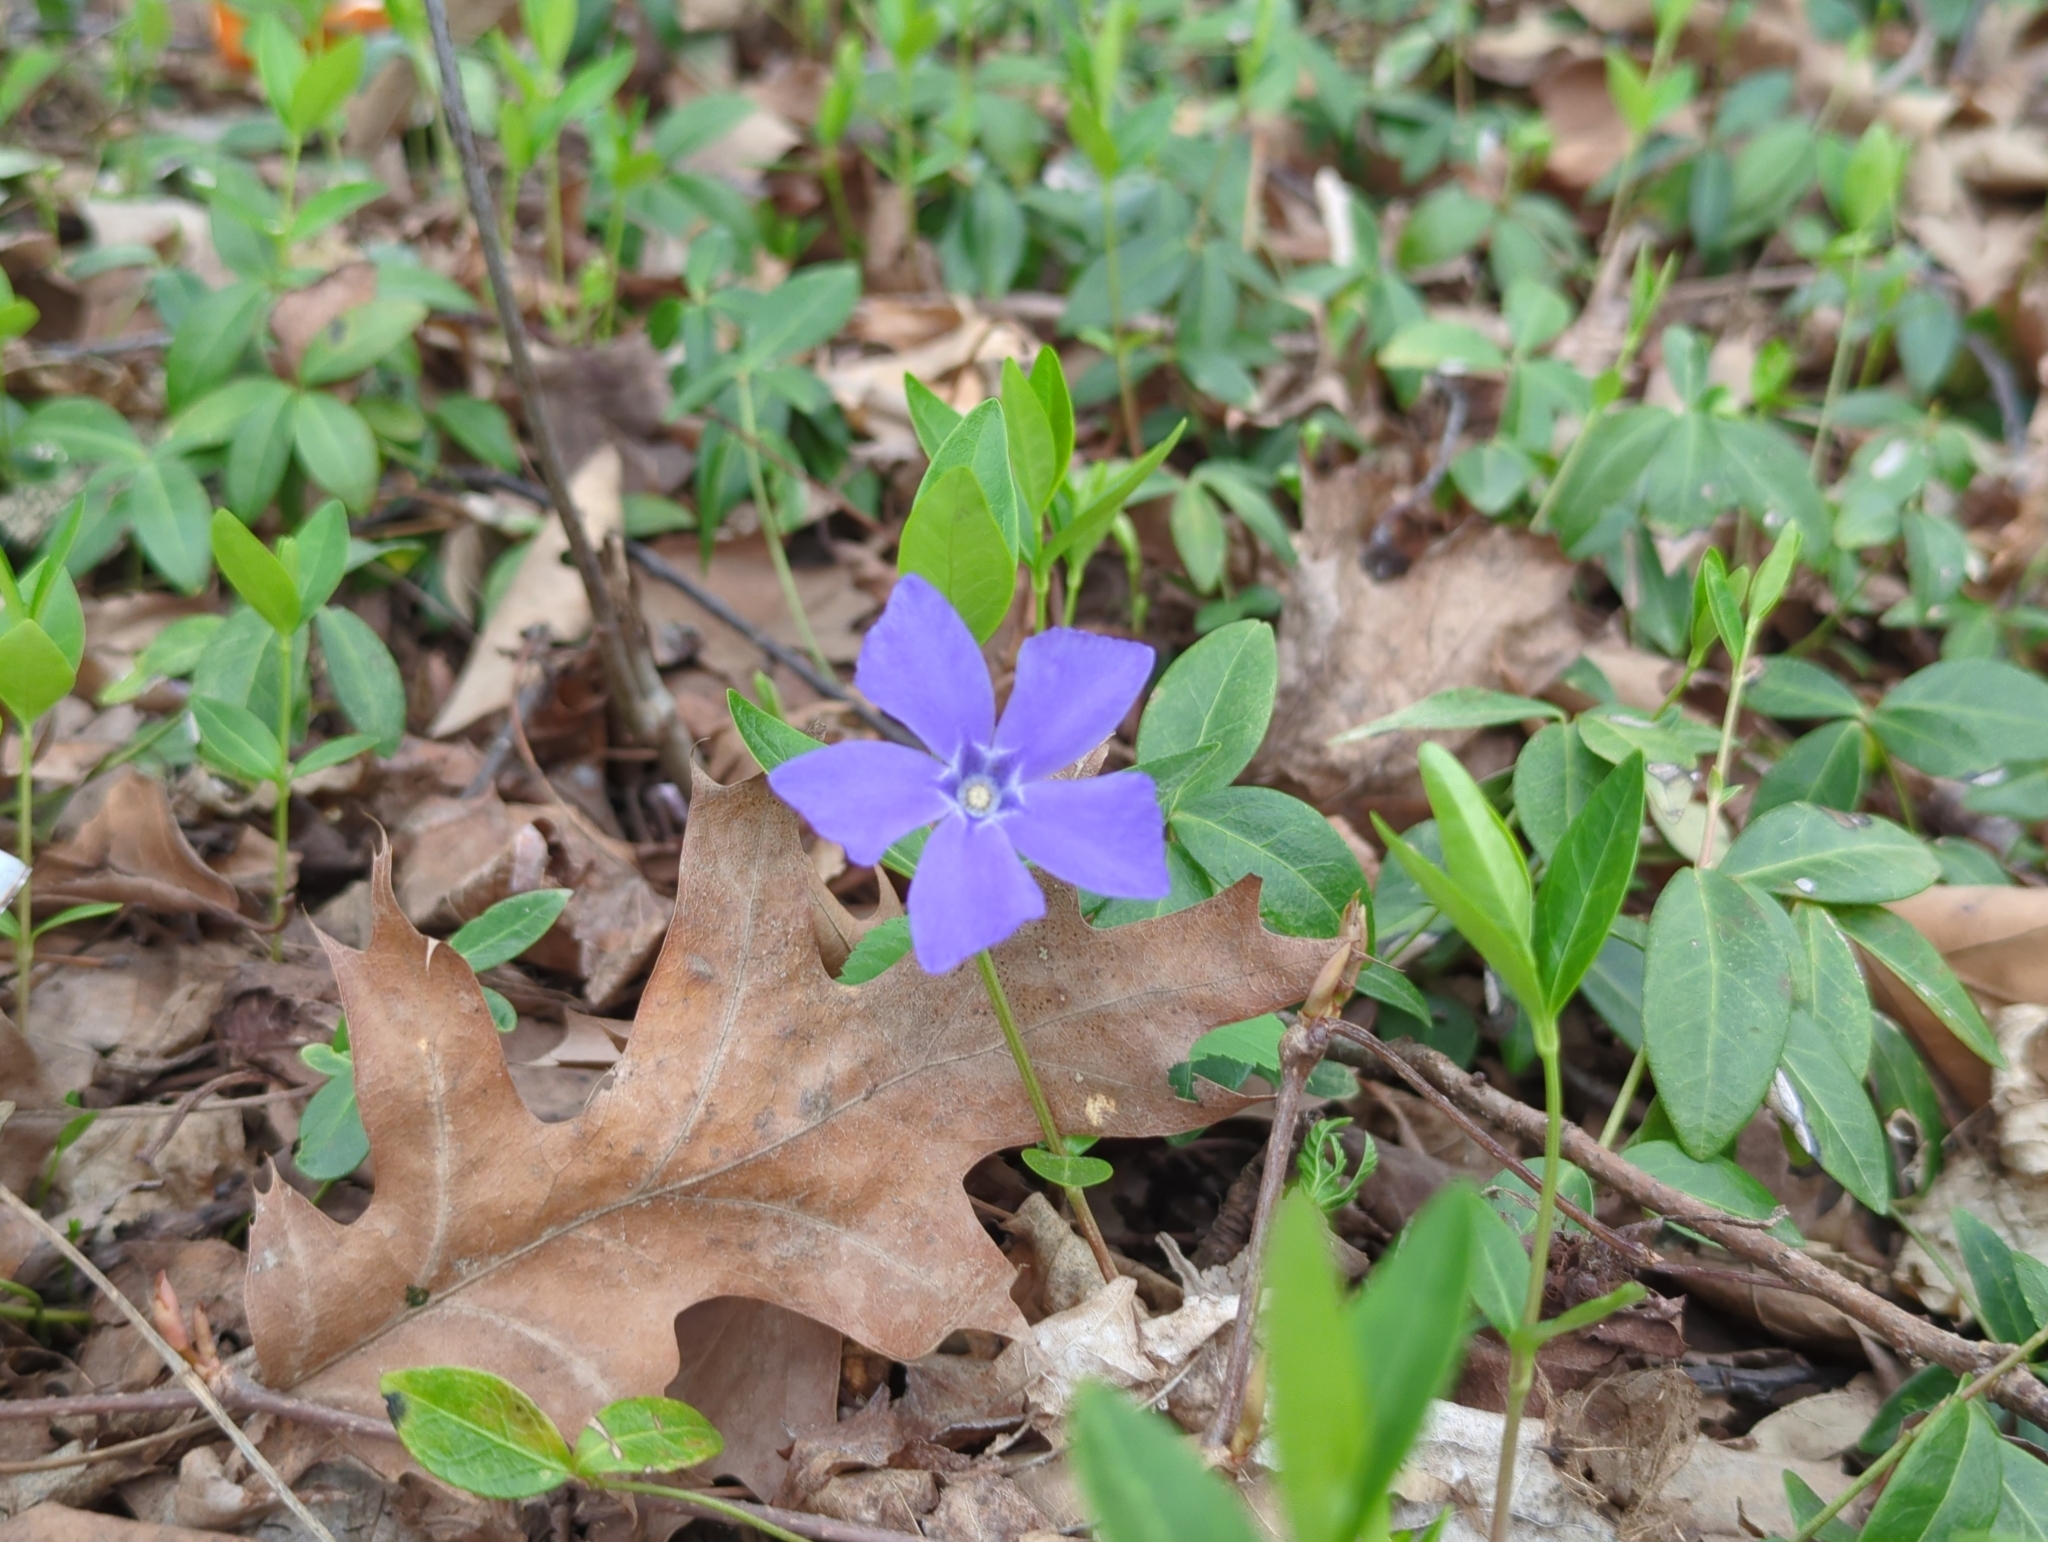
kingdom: Plantae
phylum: Tracheophyta
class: Magnoliopsida
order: Gentianales
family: Apocynaceae
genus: Vinca
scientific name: Vinca minor
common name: Lesser periwinkle
